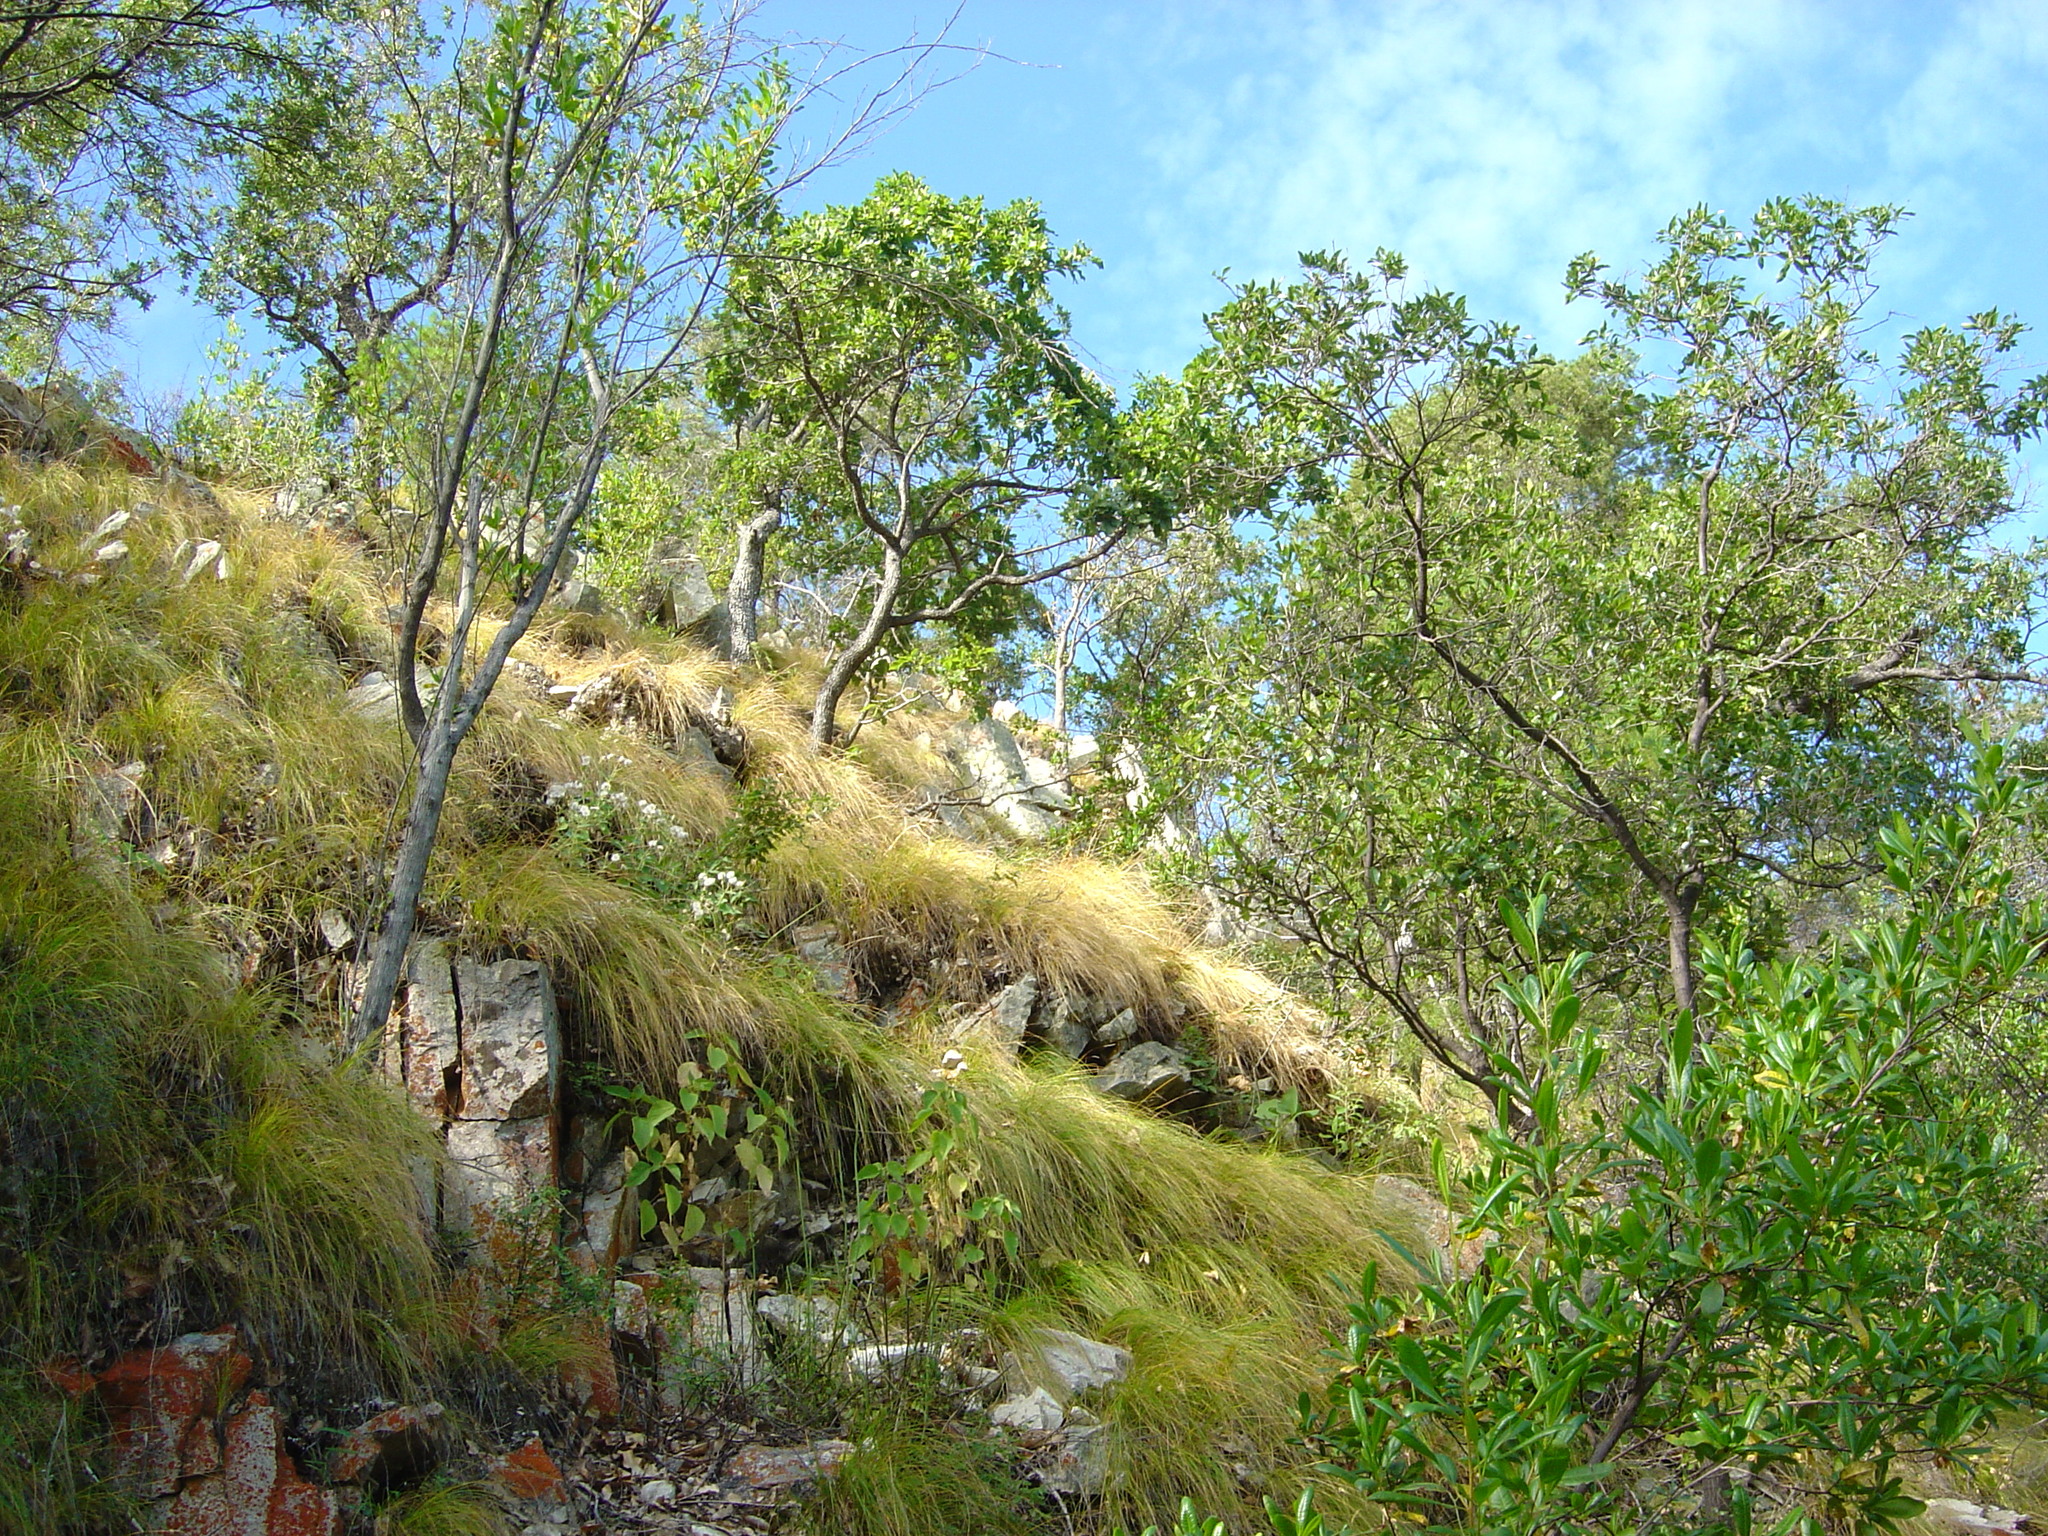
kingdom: Plantae
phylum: Tracheophyta
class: Liliopsida
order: Poales
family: Cyperaceae
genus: Carex
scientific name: Carex longissima
